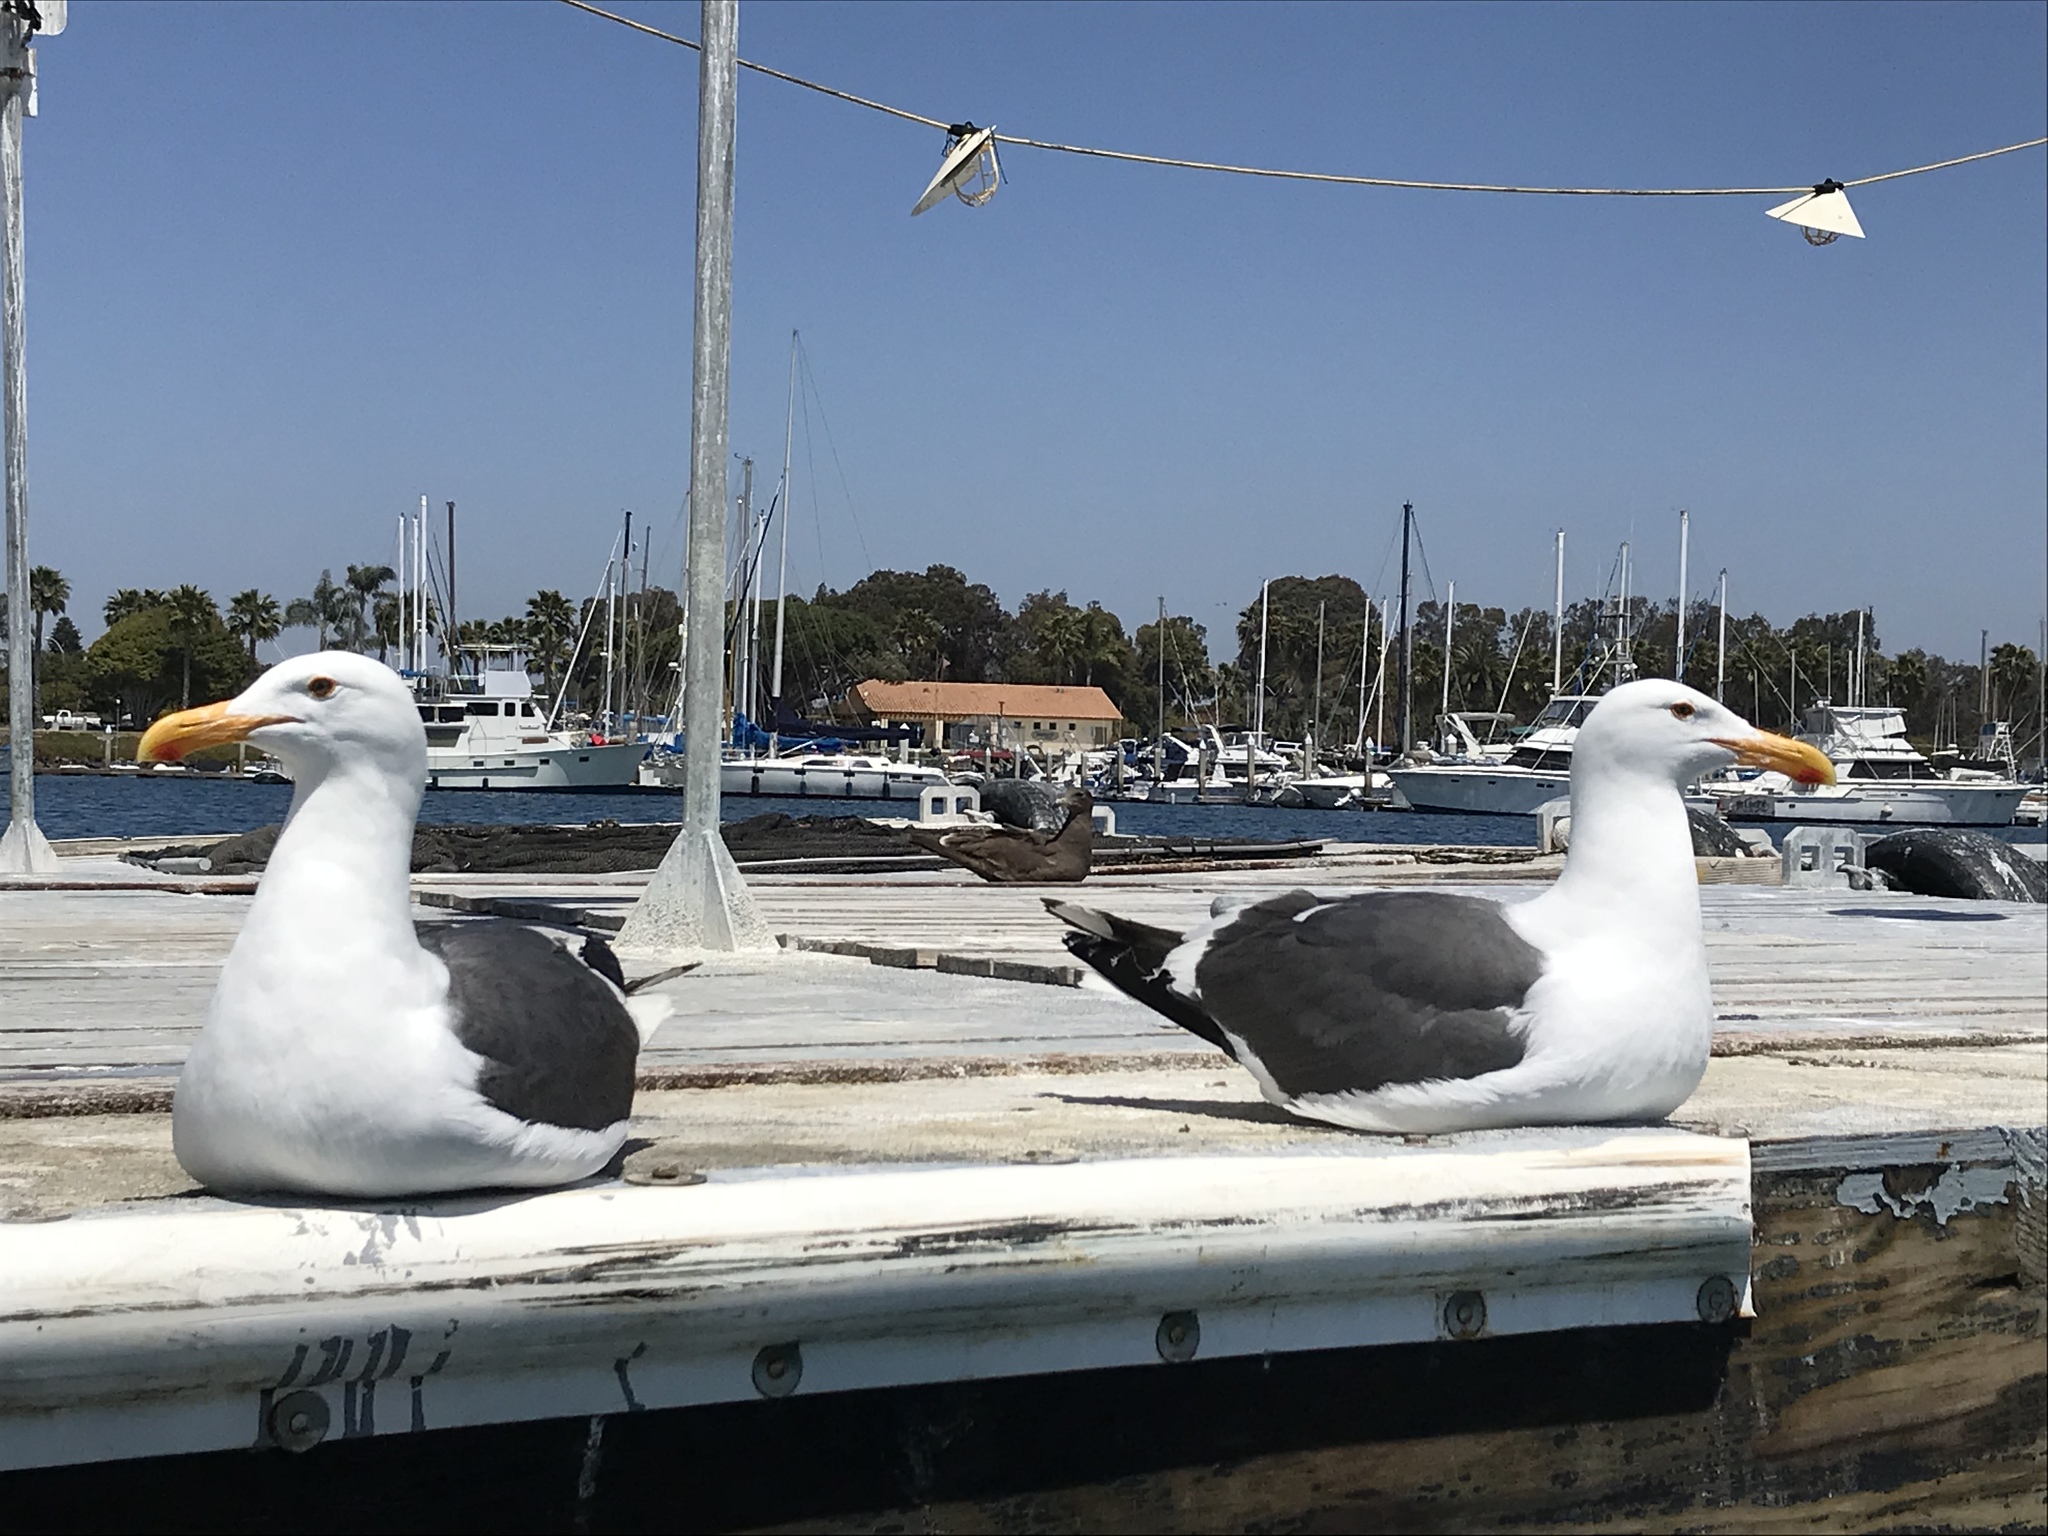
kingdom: Animalia
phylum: Chordata
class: Aves
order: Charadriiformes
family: Laridae
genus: Larus
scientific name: Larus occidentalis
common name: Western gull
